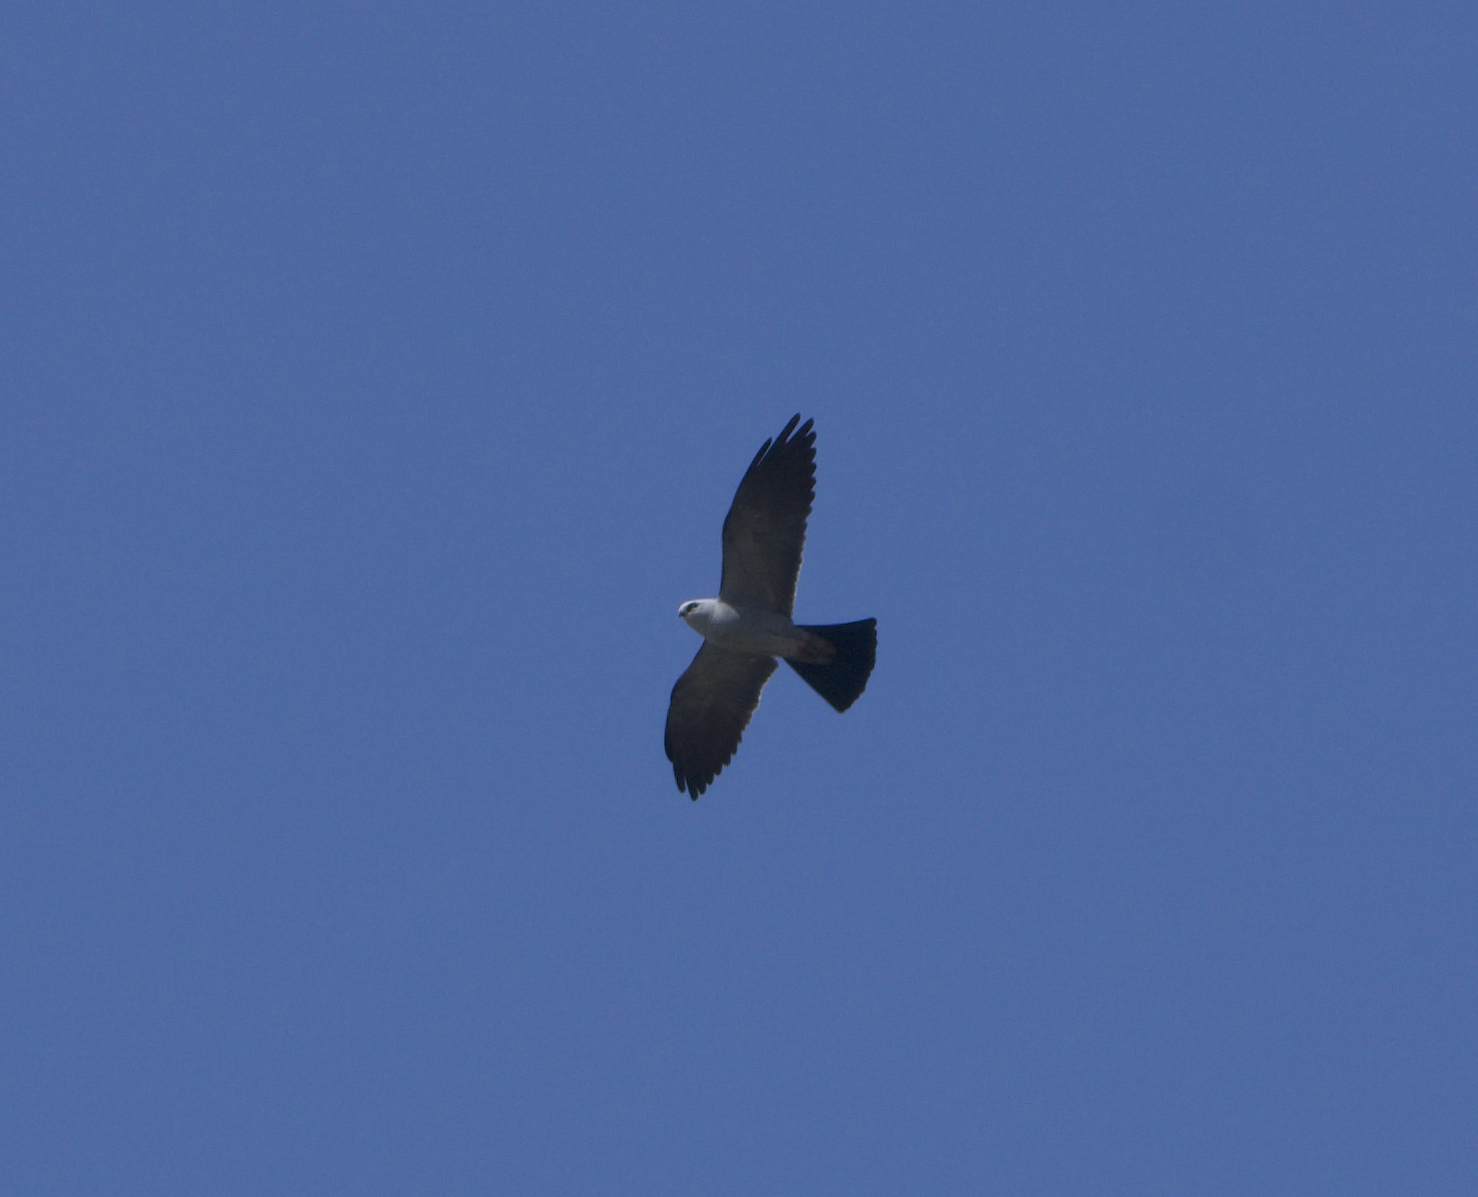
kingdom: Animalia
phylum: Chordata
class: Aves
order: Accipitriformes
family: Accipitridae
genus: Ictinia
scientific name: Ictinia mississippiensis
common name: Mississippi kite
